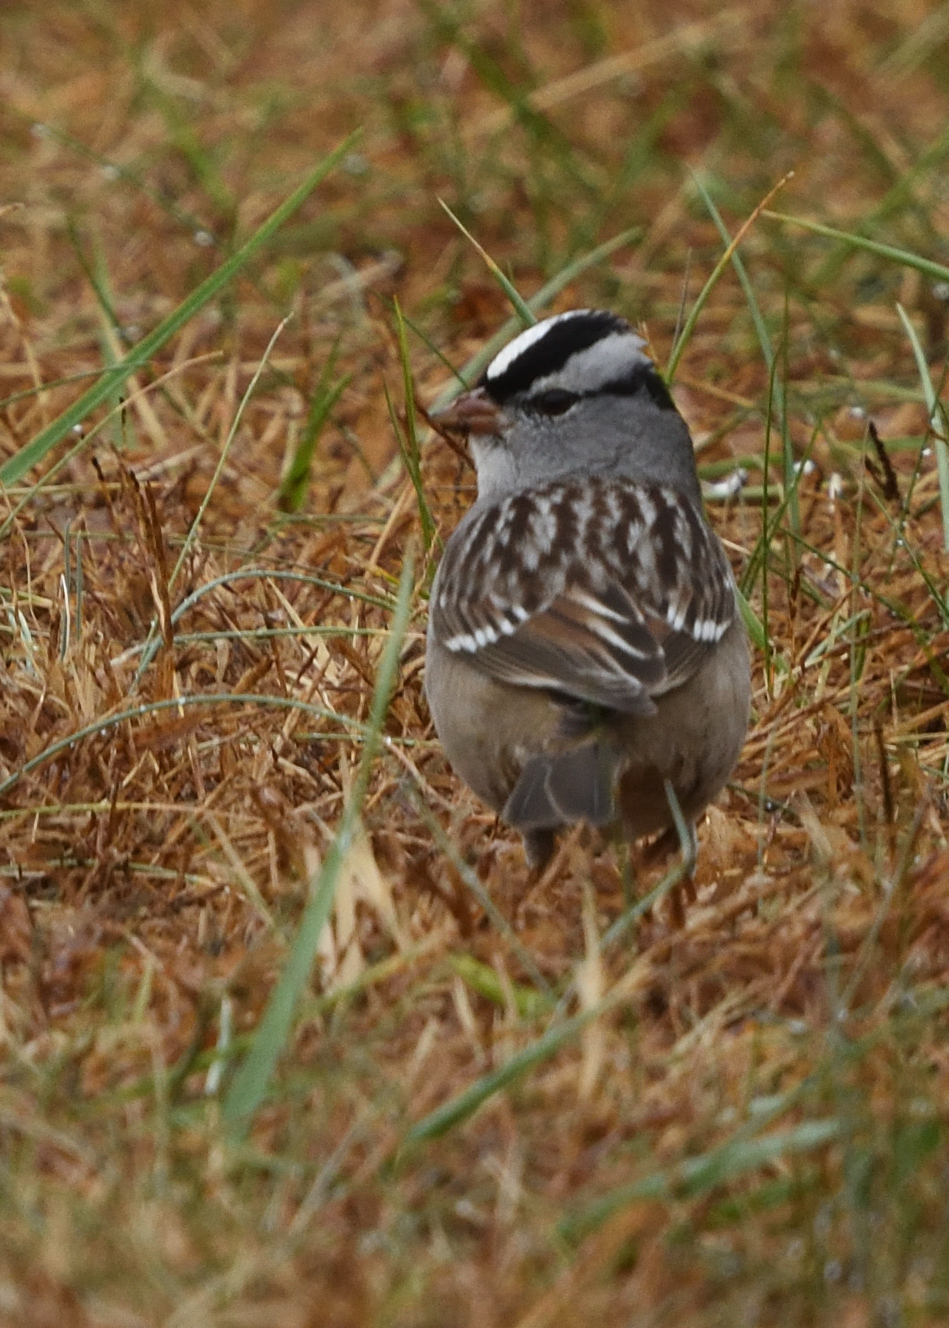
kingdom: Animalia
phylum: Chordata
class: Aves
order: Passeriformes
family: Passerellidae
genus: Zonotrichia
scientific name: Zonotrichia leucophrys
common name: White-crowned sparrow
